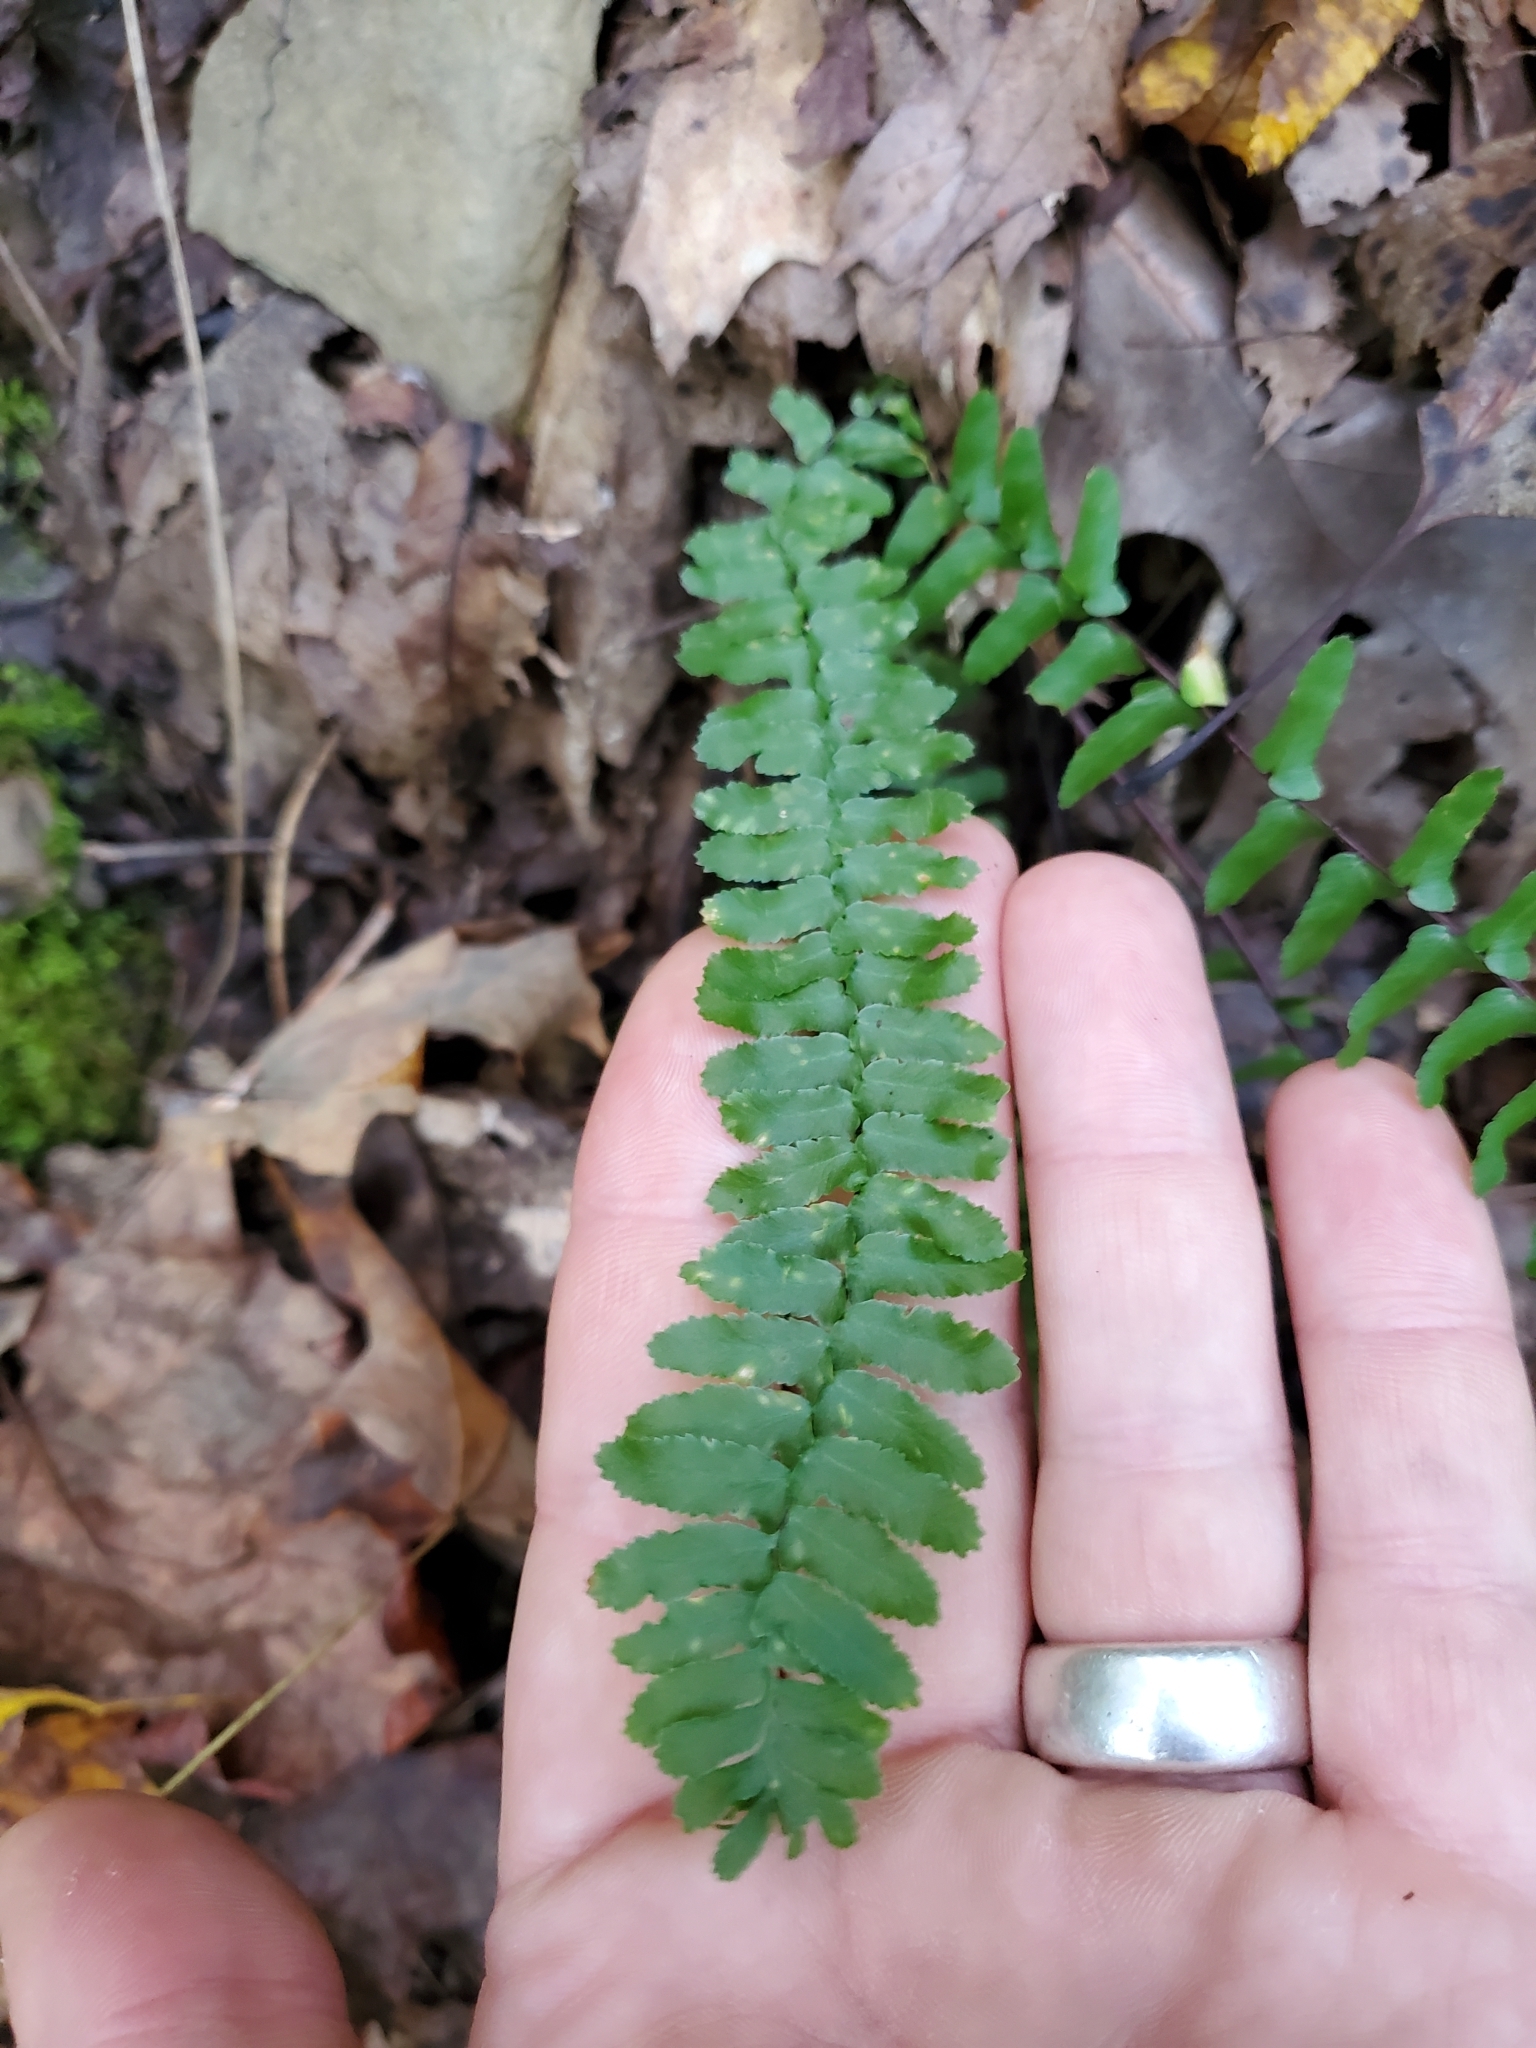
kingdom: Plantae
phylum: Tracheophyta
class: Polypodiopsida
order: Polypodiales
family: Aspleniaceae
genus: Asplenium
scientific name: Asplenium platyneuron
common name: Ebony spleenwort
